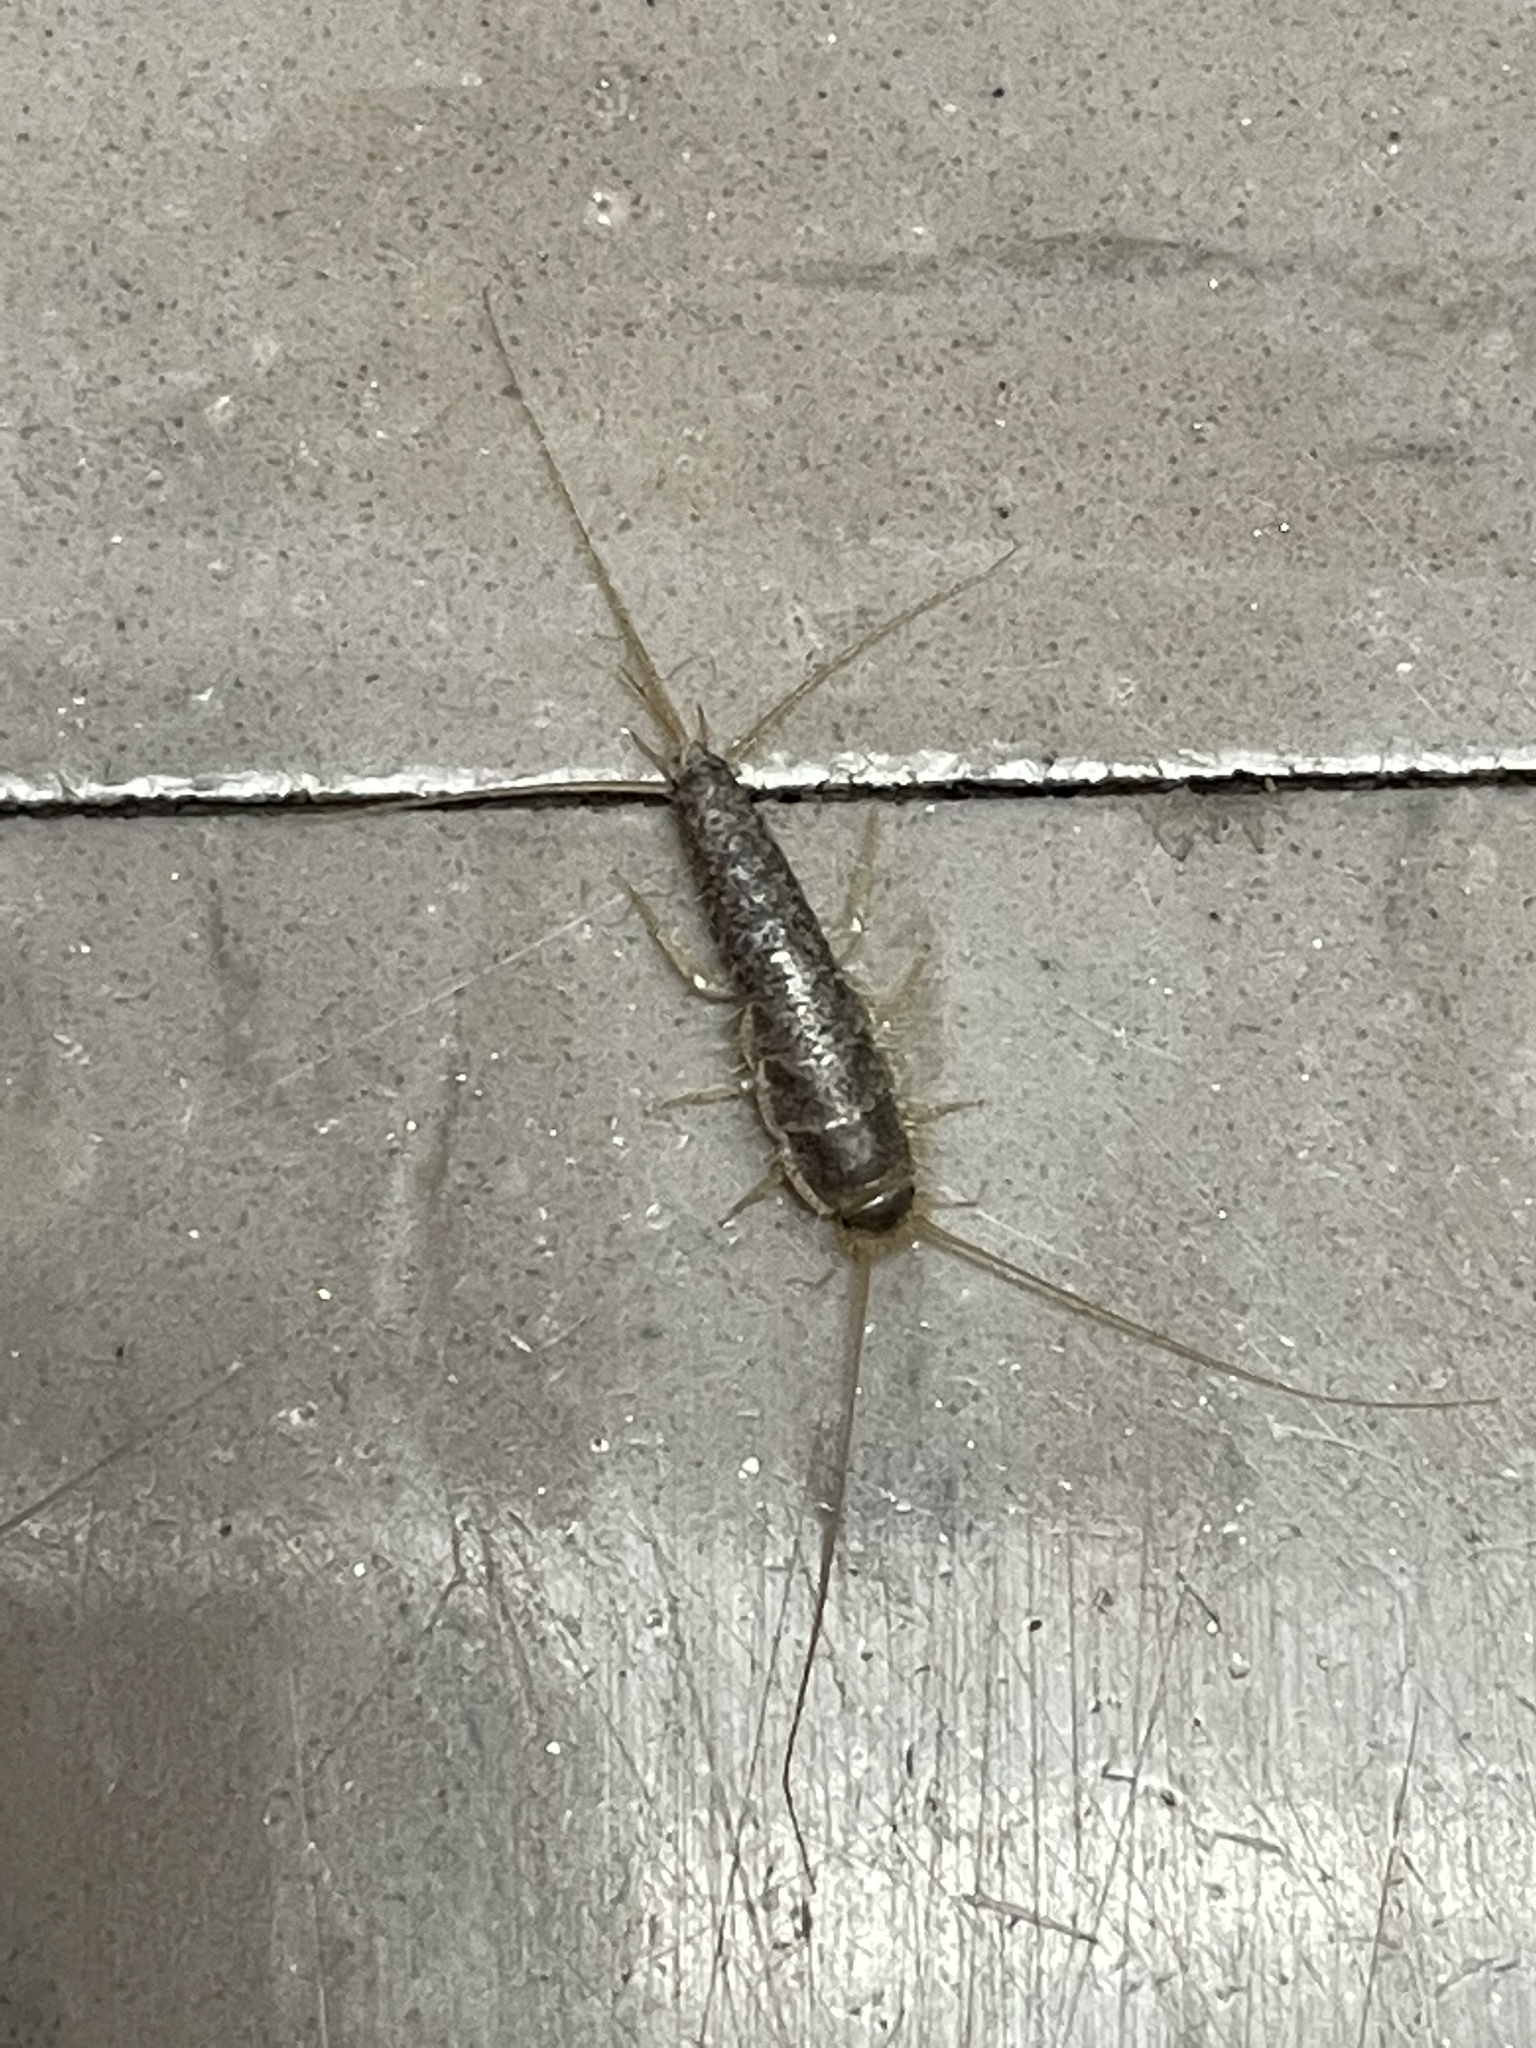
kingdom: Animalia
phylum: Arthropoda
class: Insecta
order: Zygentoma
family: Lepismatidae
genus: Ctenolepisma
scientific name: Ctenolepisma longicaudatum
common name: Silverfish
